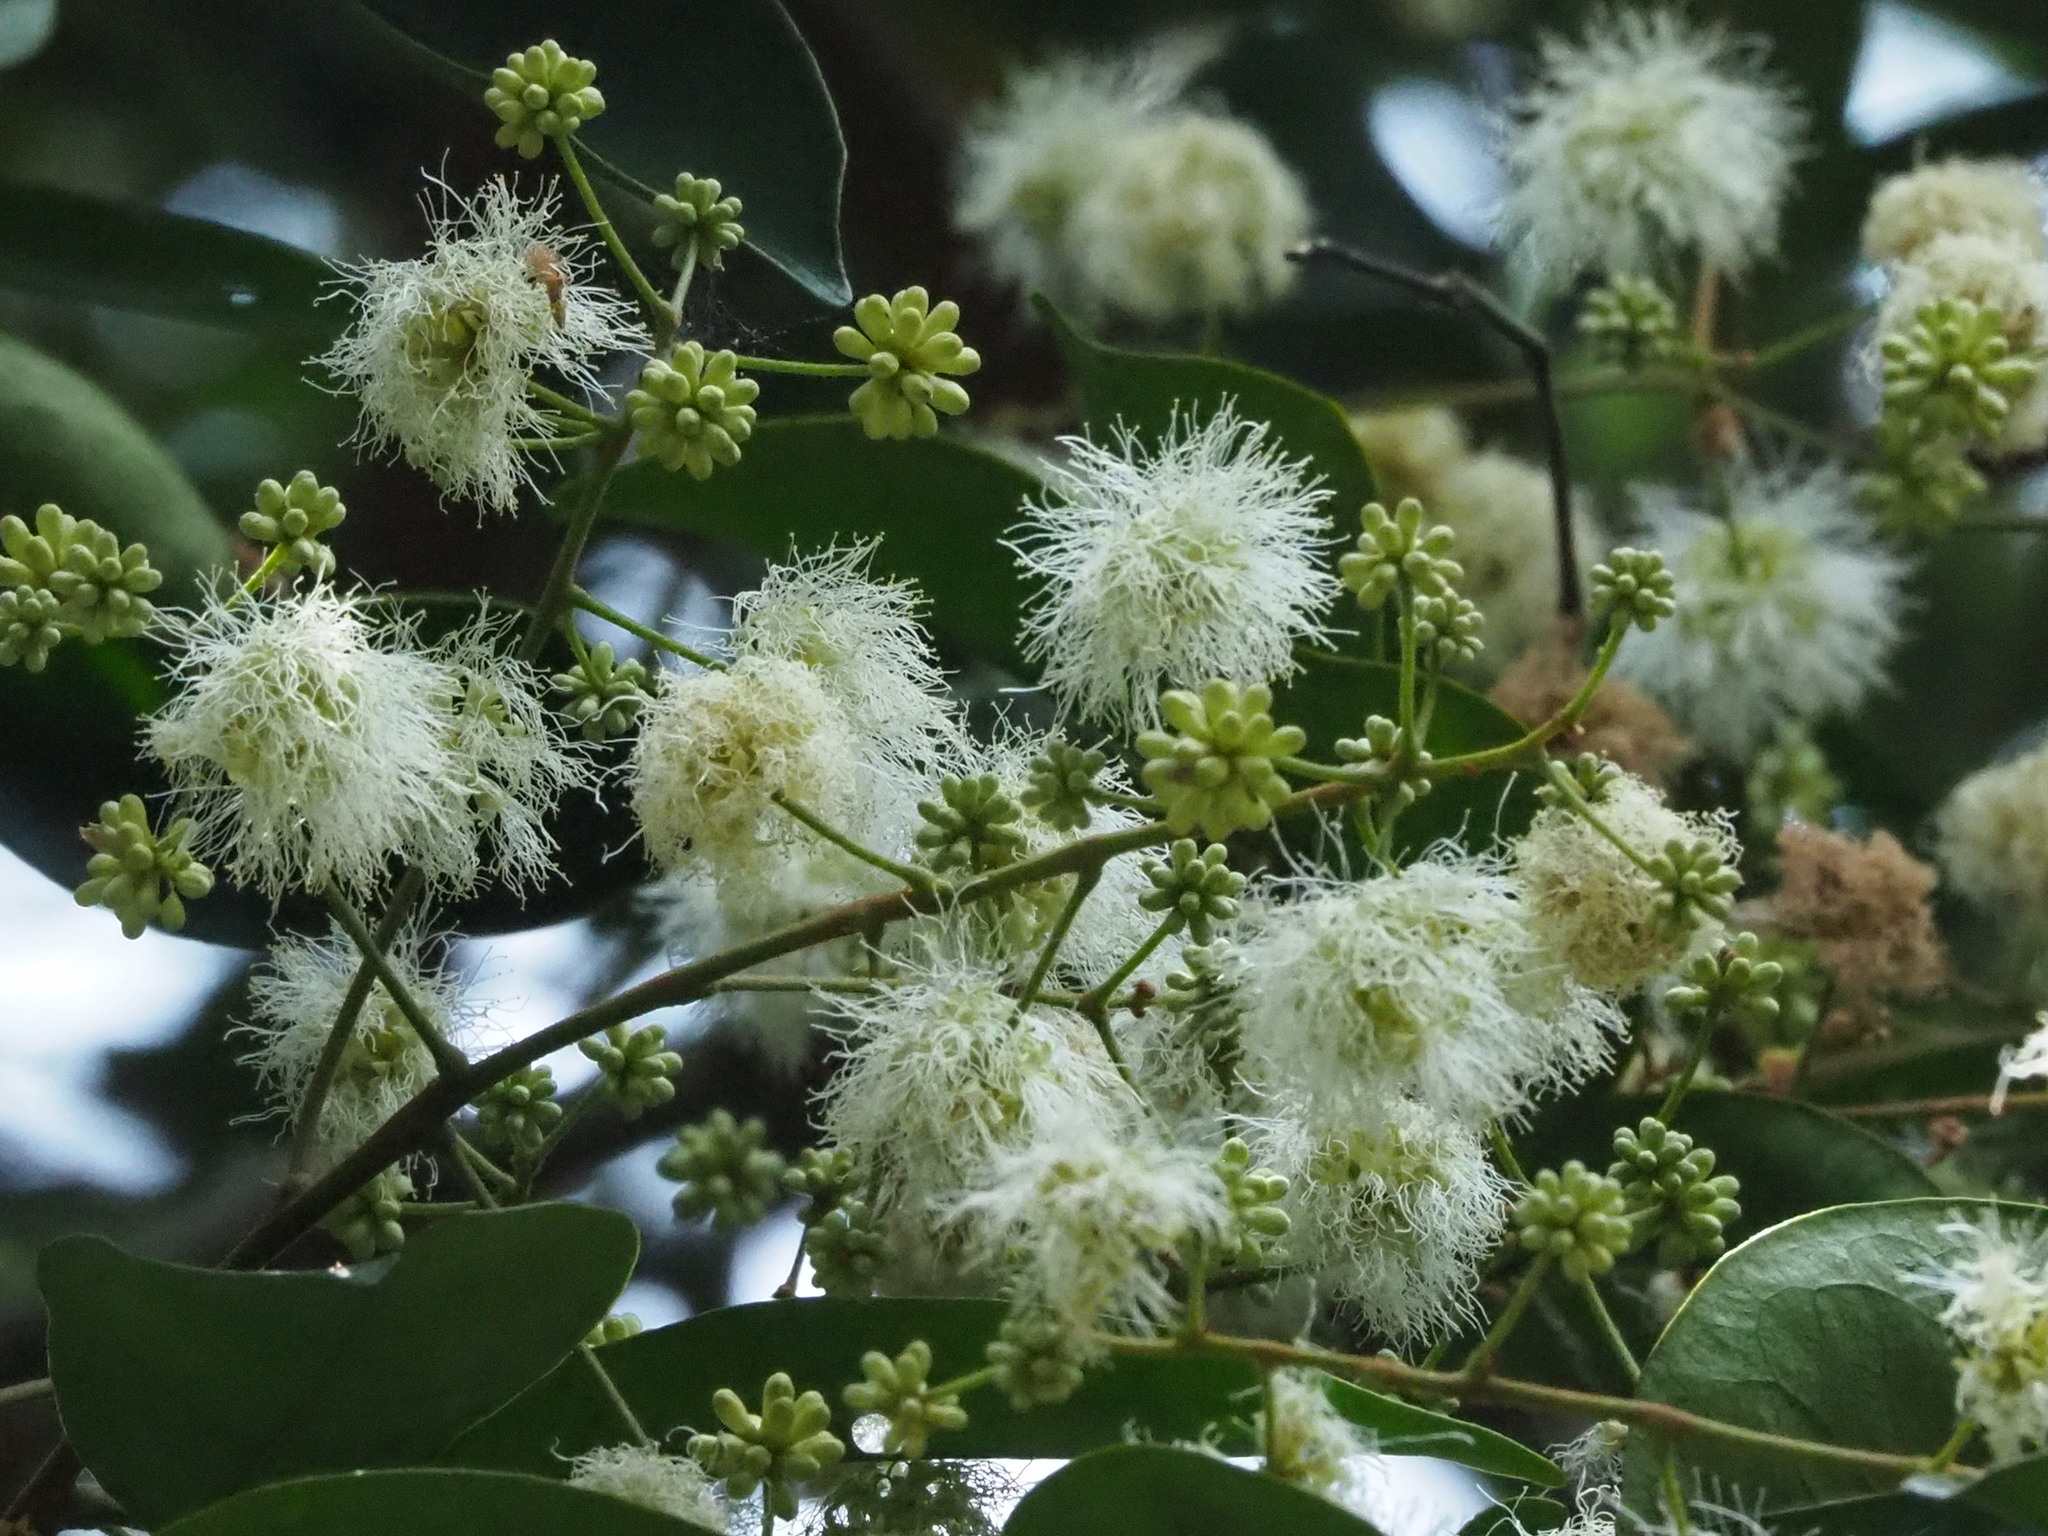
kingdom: Plantae
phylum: Tracheophyta
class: Magnoliopsida
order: Fabales
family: Fabaceae
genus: Archidendron
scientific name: Archidendron lucidum
